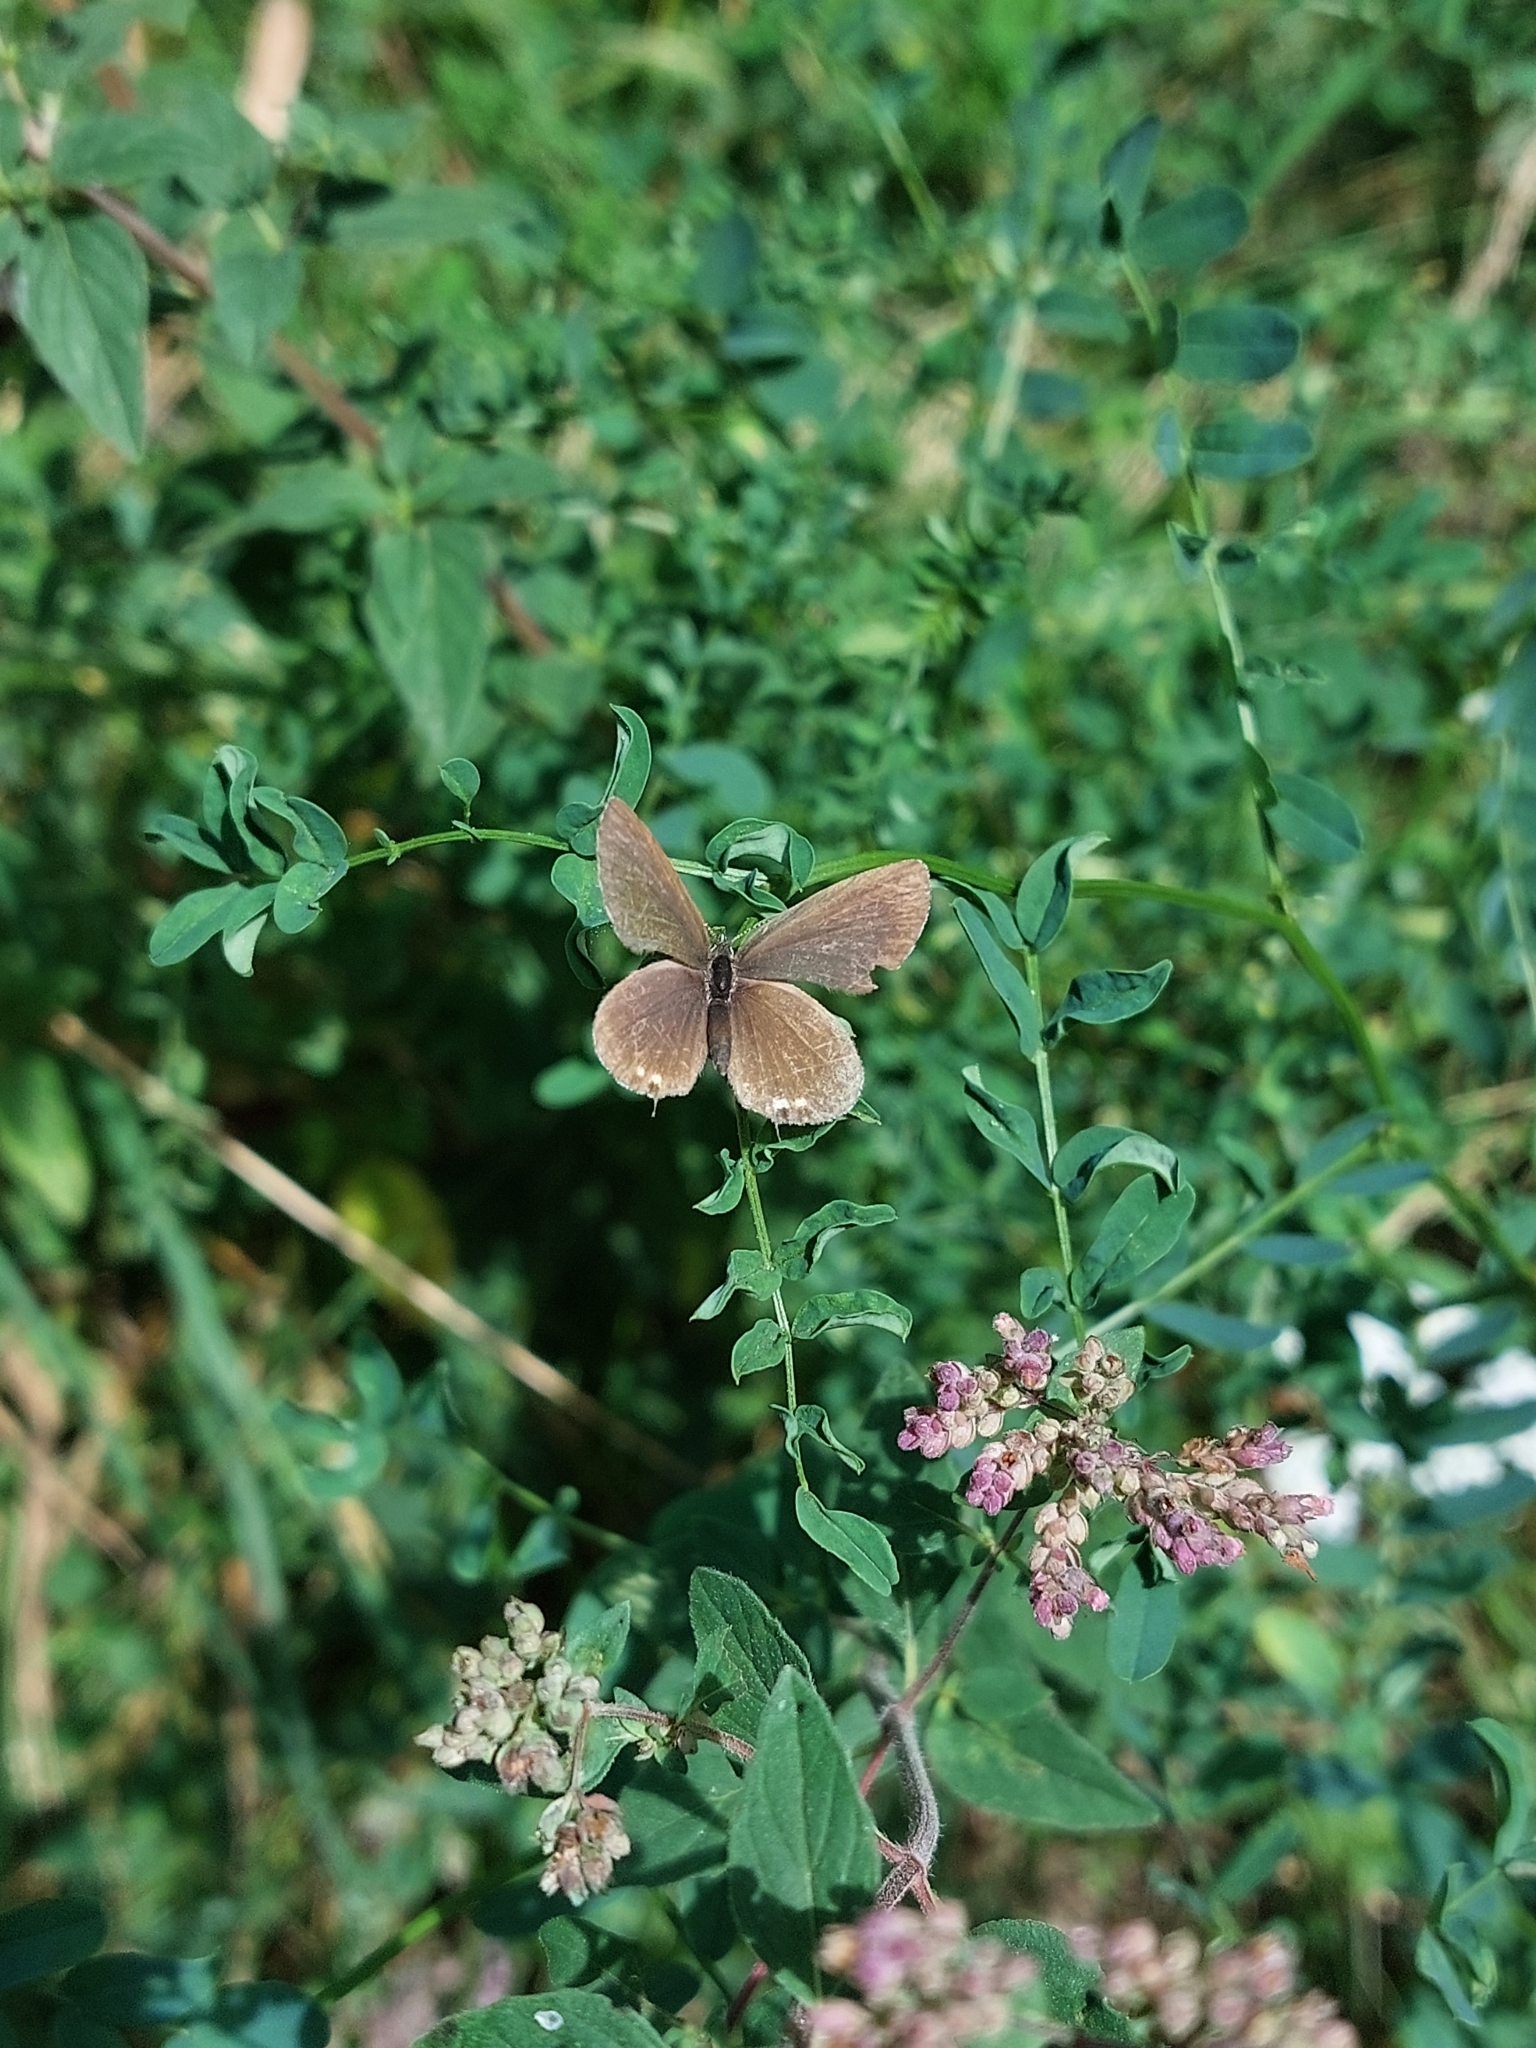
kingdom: Animalia
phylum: Arthropoda
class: Insecta
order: Lepidoptera
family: Lycaenidae
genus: Elkalyce
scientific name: Elkalyce argiades
